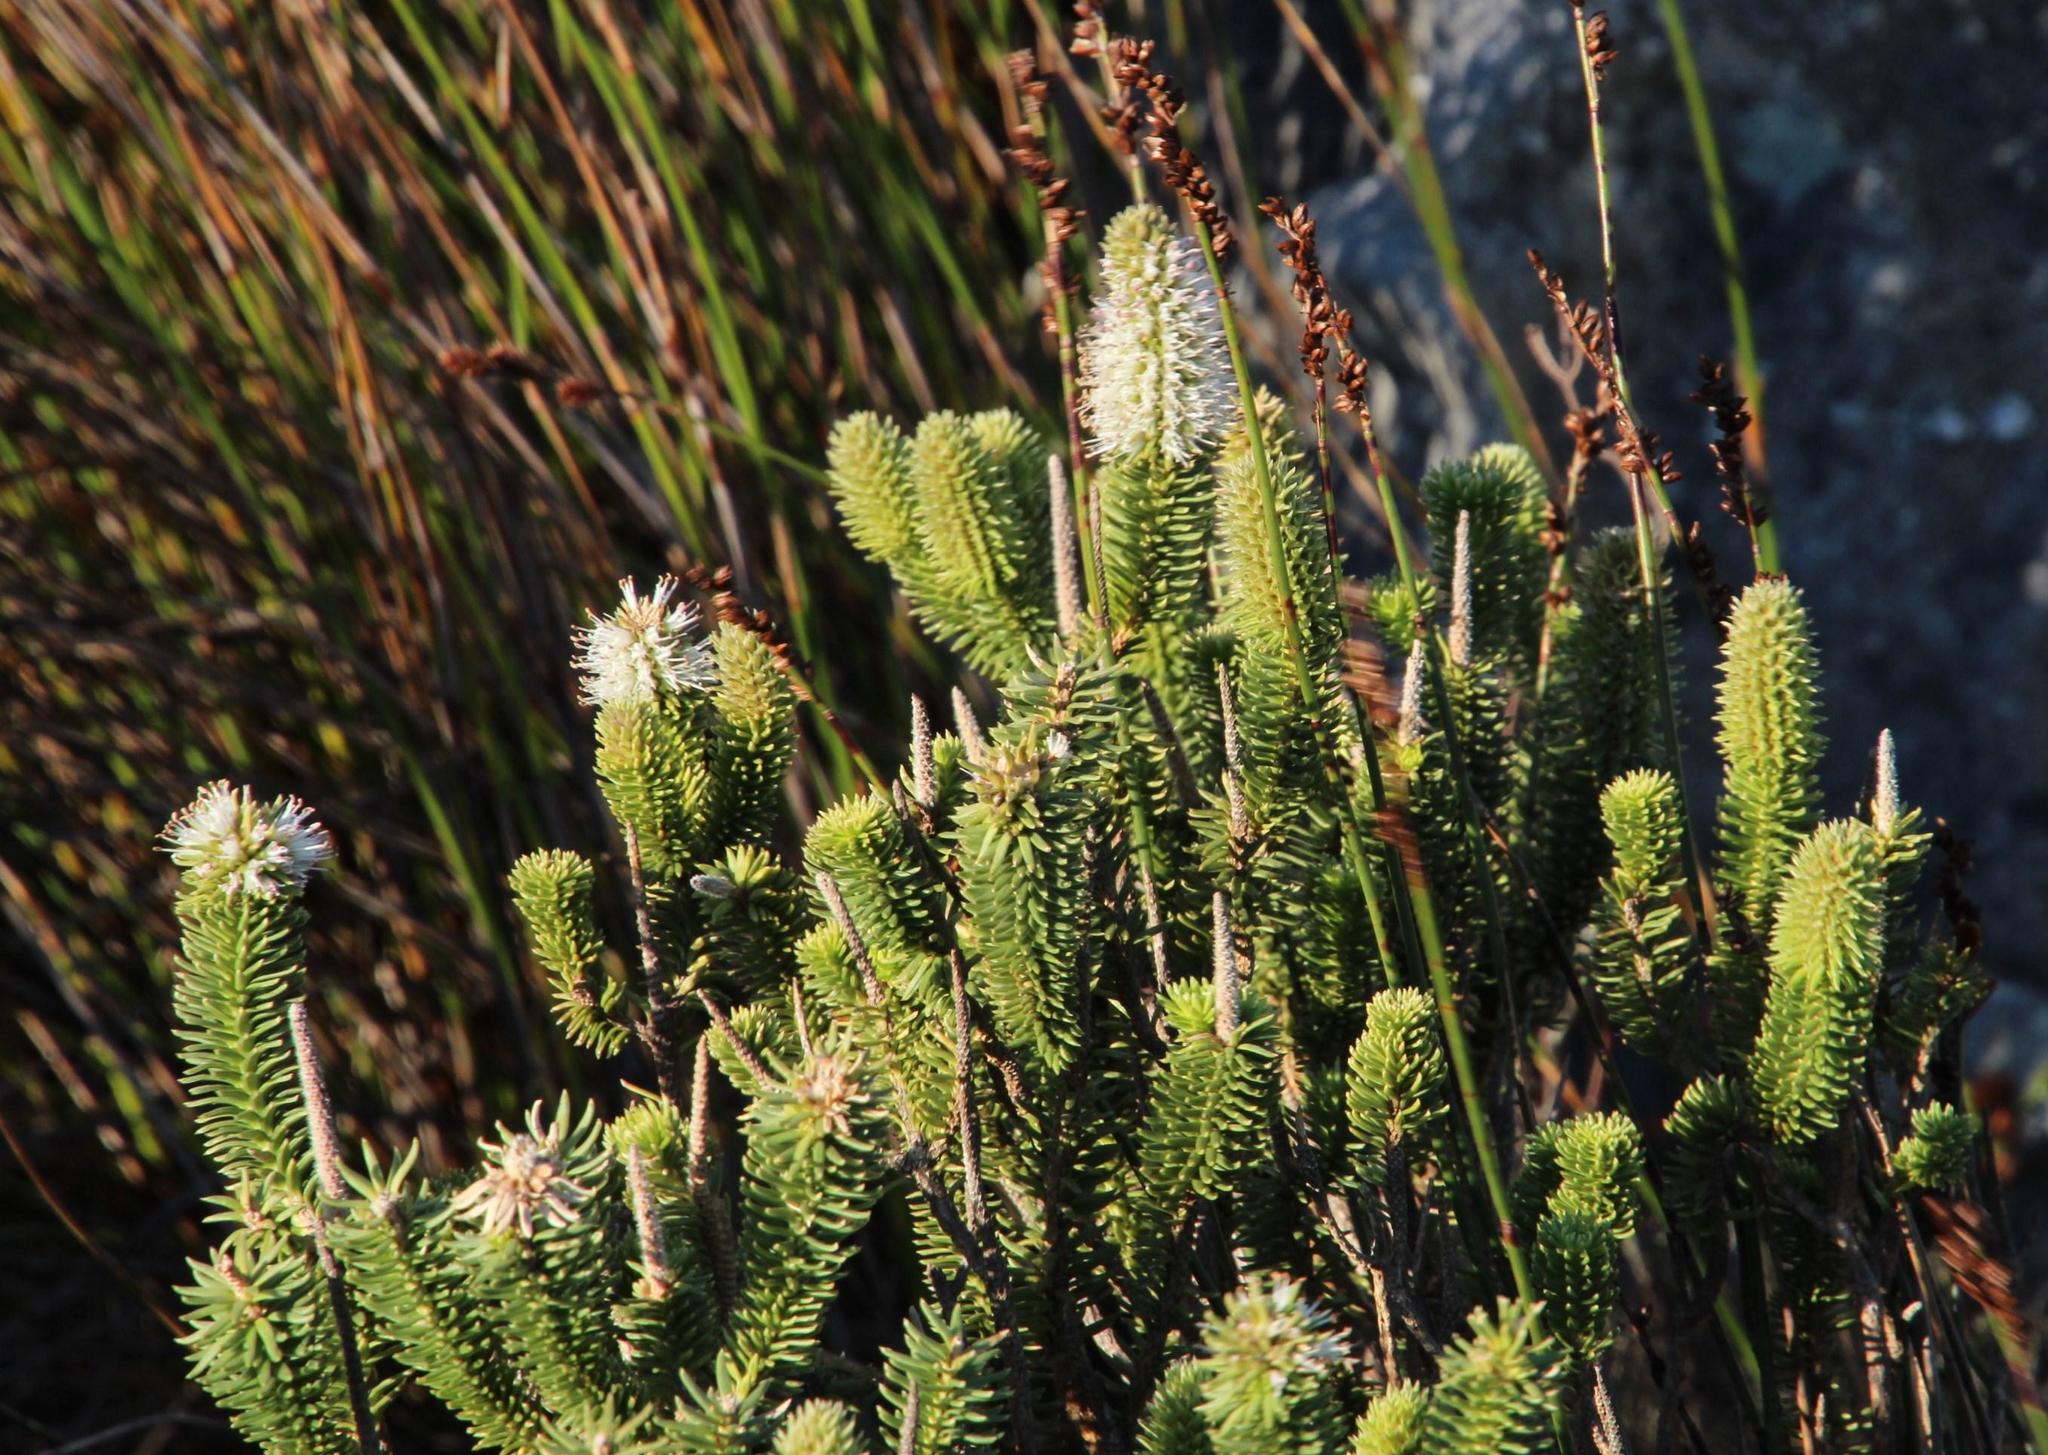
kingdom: Plantae
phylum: Tracheophyta
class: Magnoliopsida
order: Lamiales
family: Stilbaceae
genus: Stilbe
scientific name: Stilbe vestita
